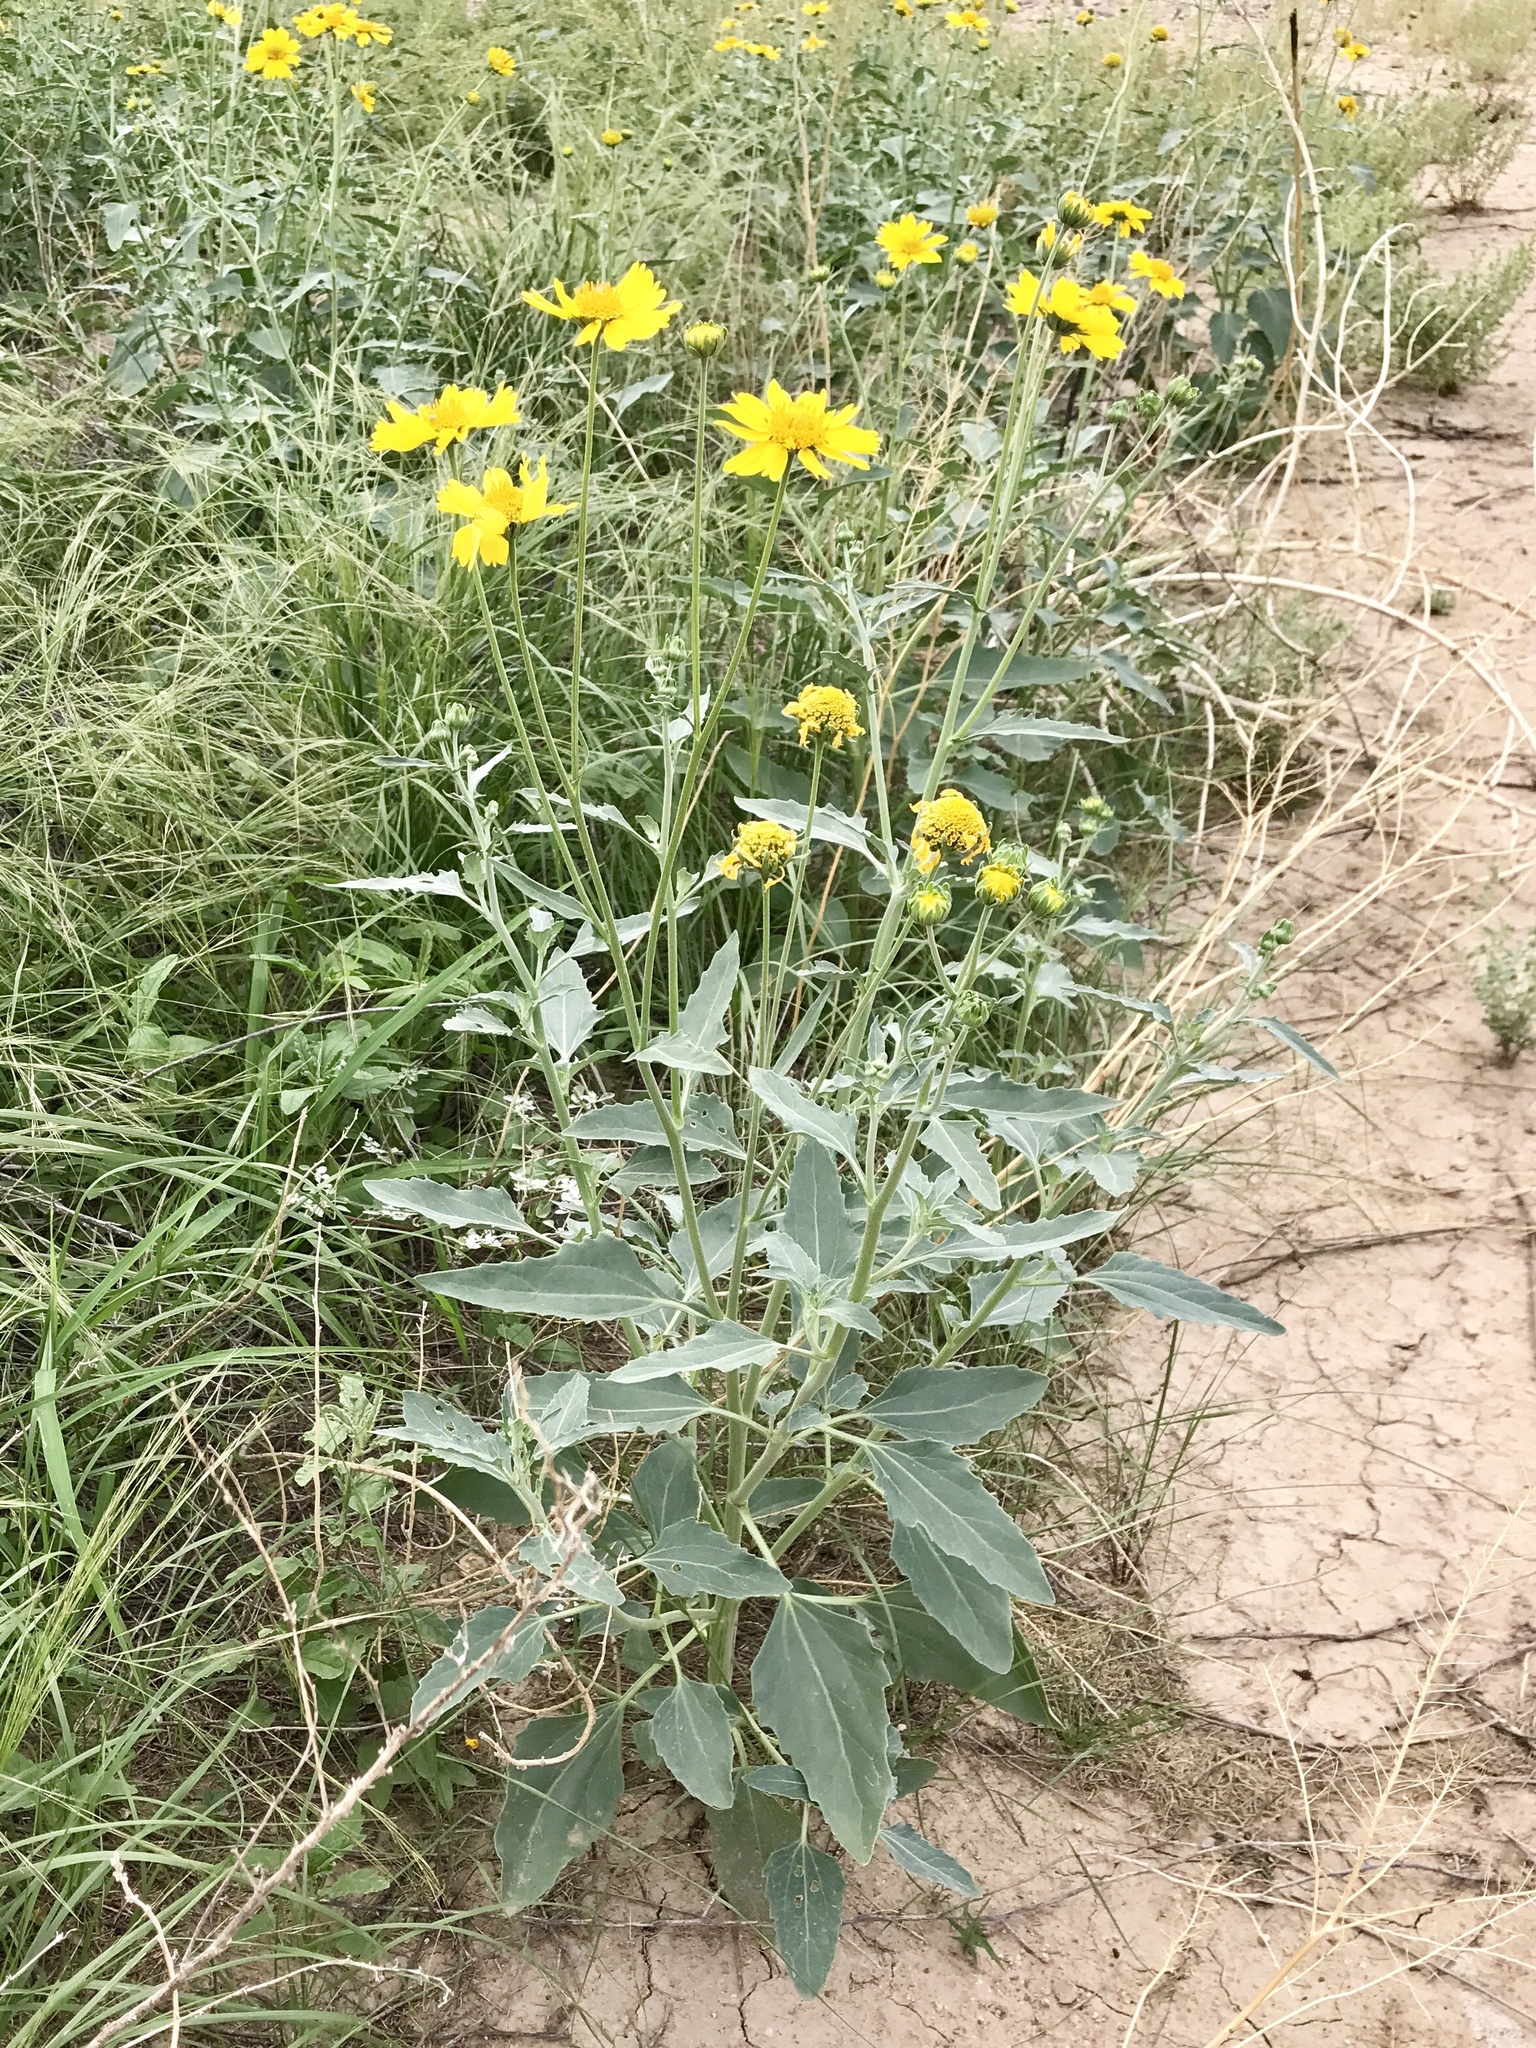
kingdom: Plantae
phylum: Tracheophyta
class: Magnoliopsida
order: Asterales
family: Asteraceae
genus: Verbesina
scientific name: Verbesina encelioides
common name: Golden crownbeard
